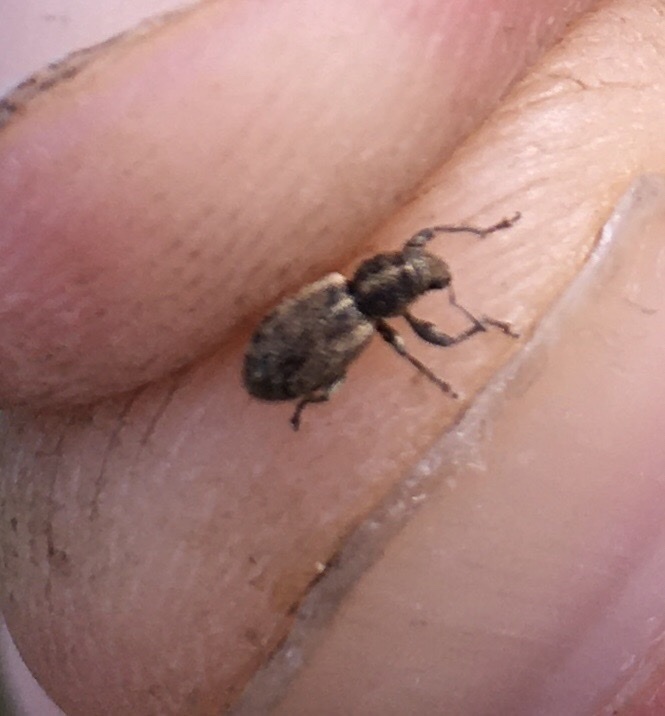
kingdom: Animalia
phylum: Arthropoda
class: Insecta
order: Coleoptera
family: Curculionidae
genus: Andrion
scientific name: Andrion regensteinense
